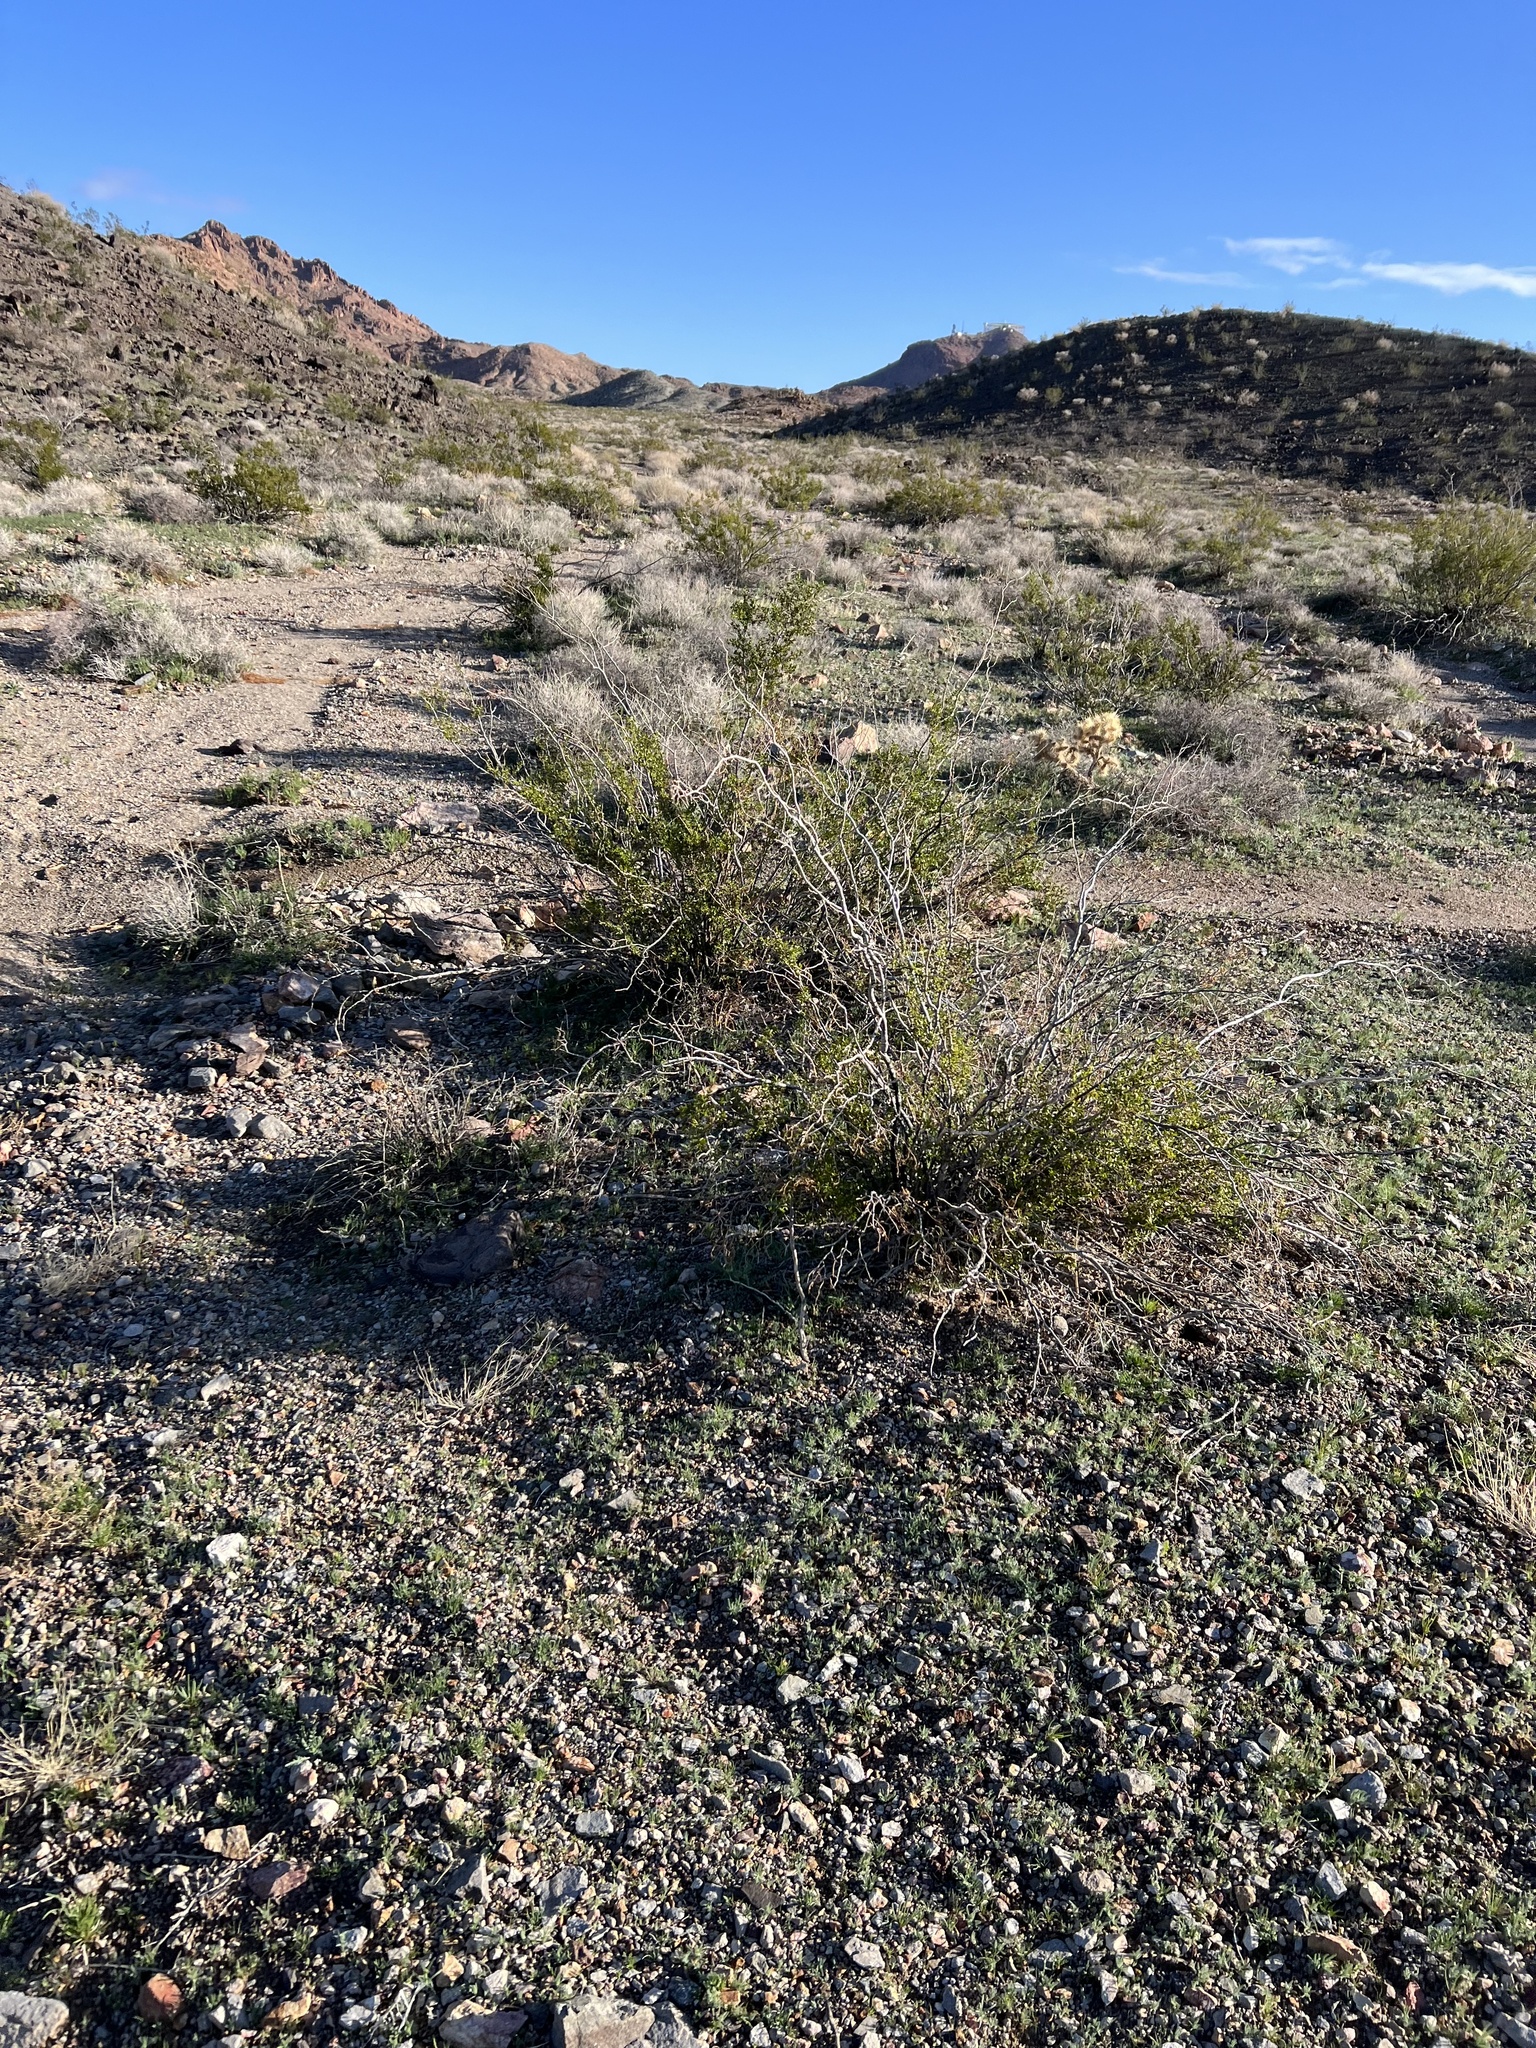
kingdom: Plantae
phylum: Tracheophyta
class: Magnoliopsida
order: Zygophyllales
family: Zygophyllaceae
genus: Larrea
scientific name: Larrea tridentata
